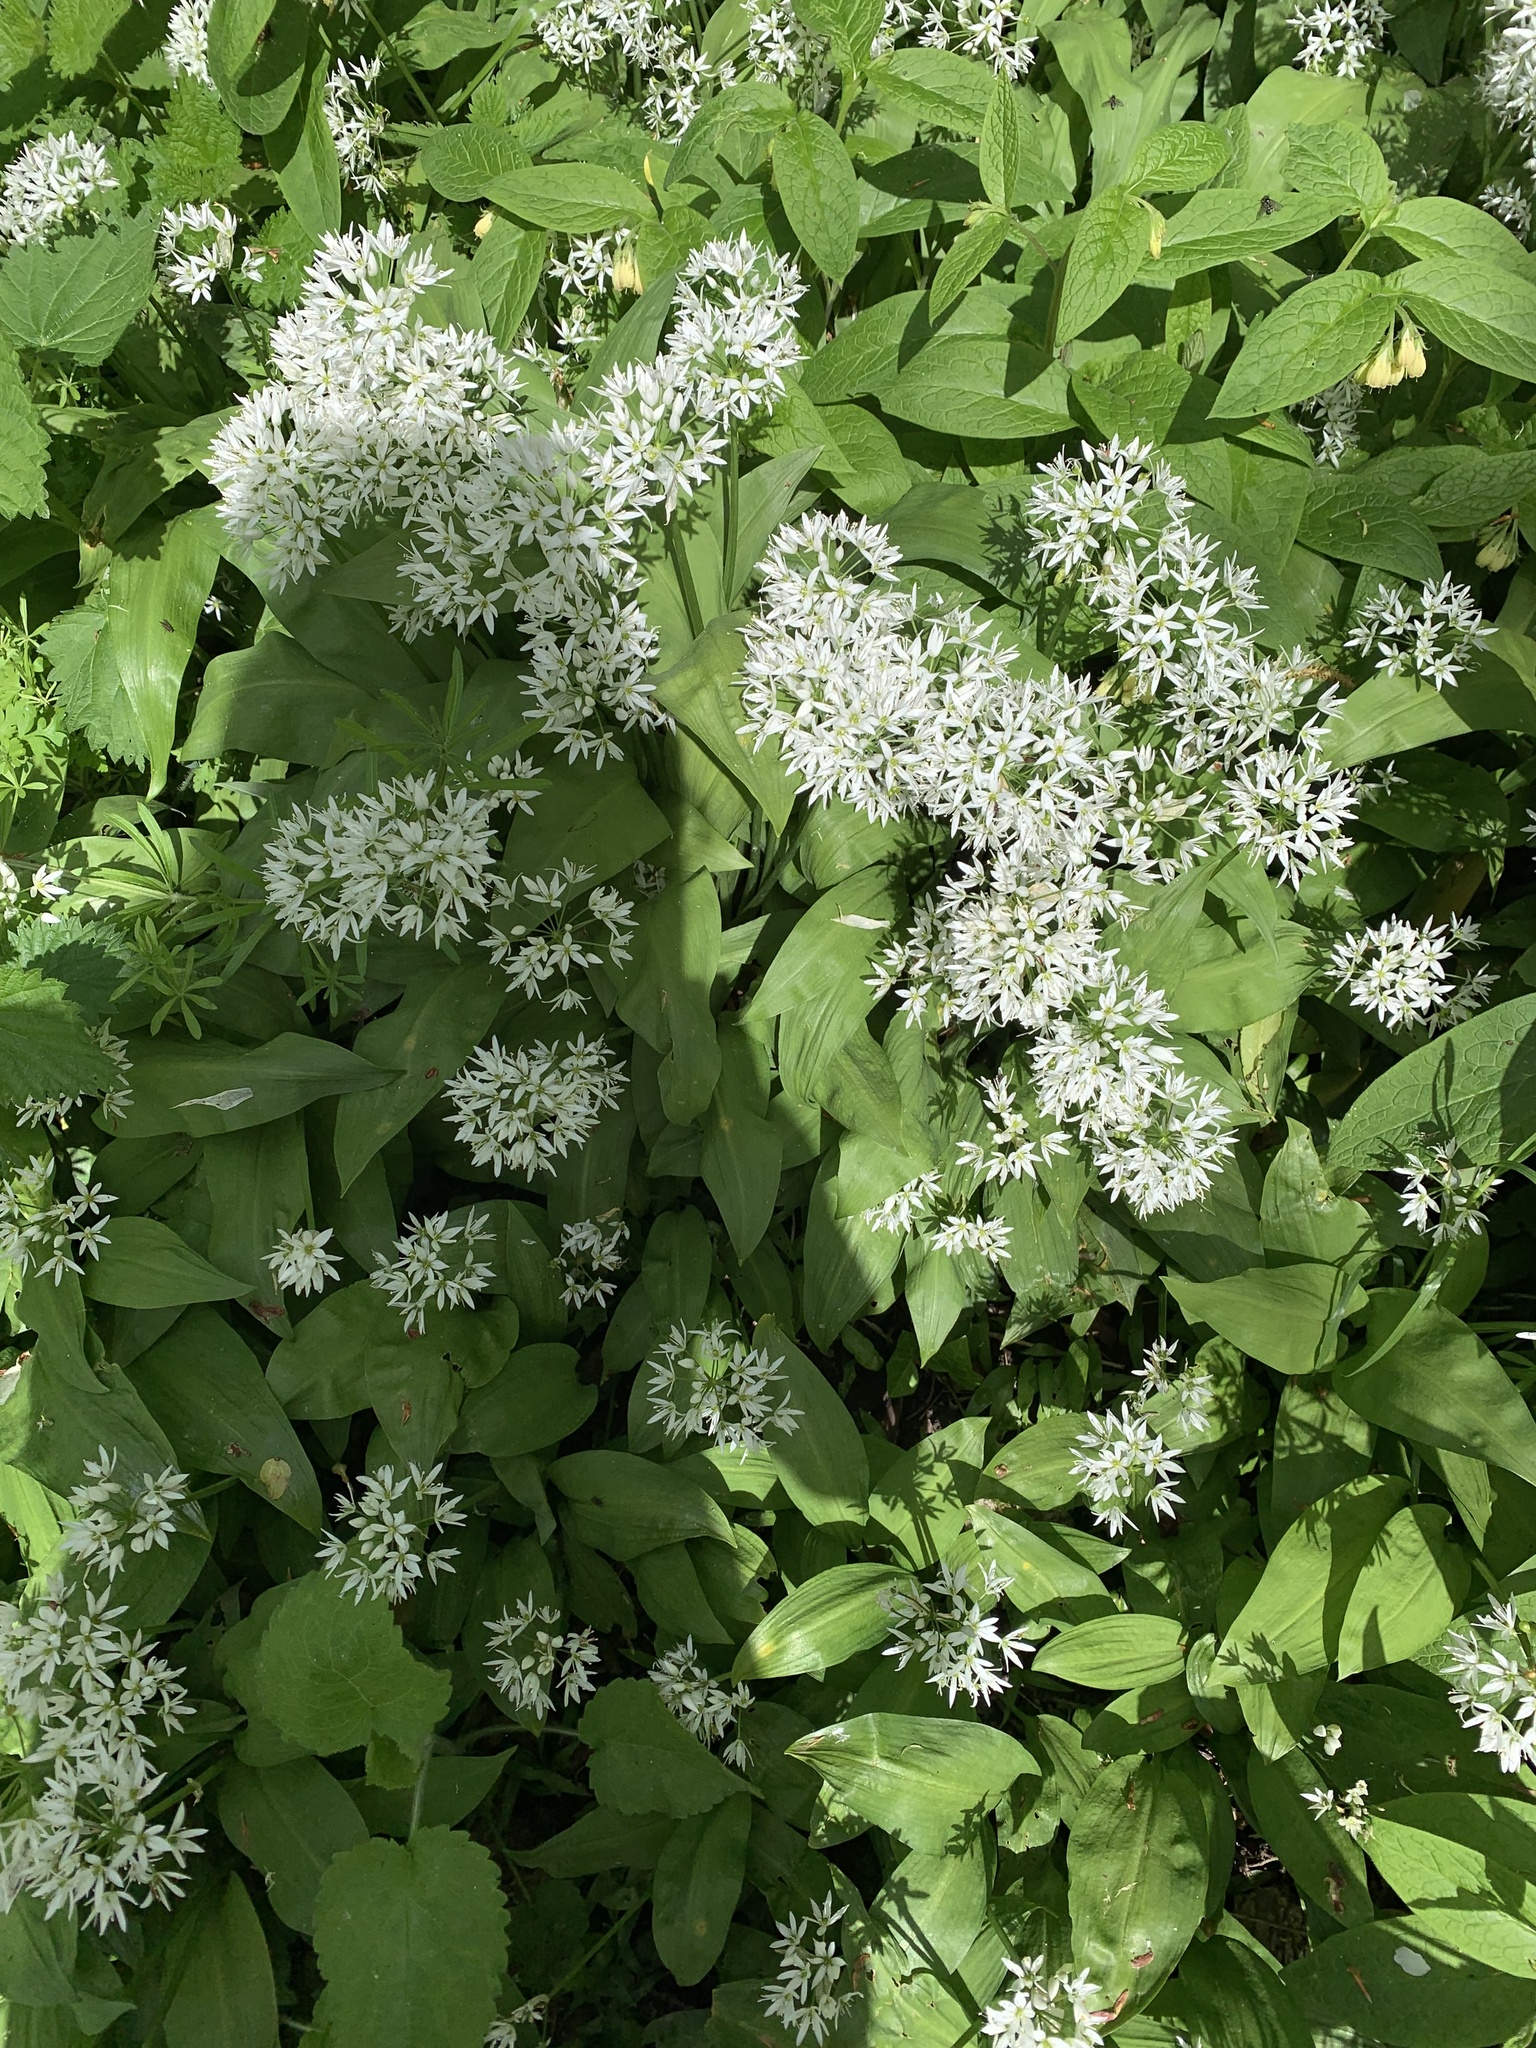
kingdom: Plantae
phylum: Tracheophyta
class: Liliopsida
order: Asparagales
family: Amaryllidaceae
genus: Allium
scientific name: Allium ursinum
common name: Ramsons
